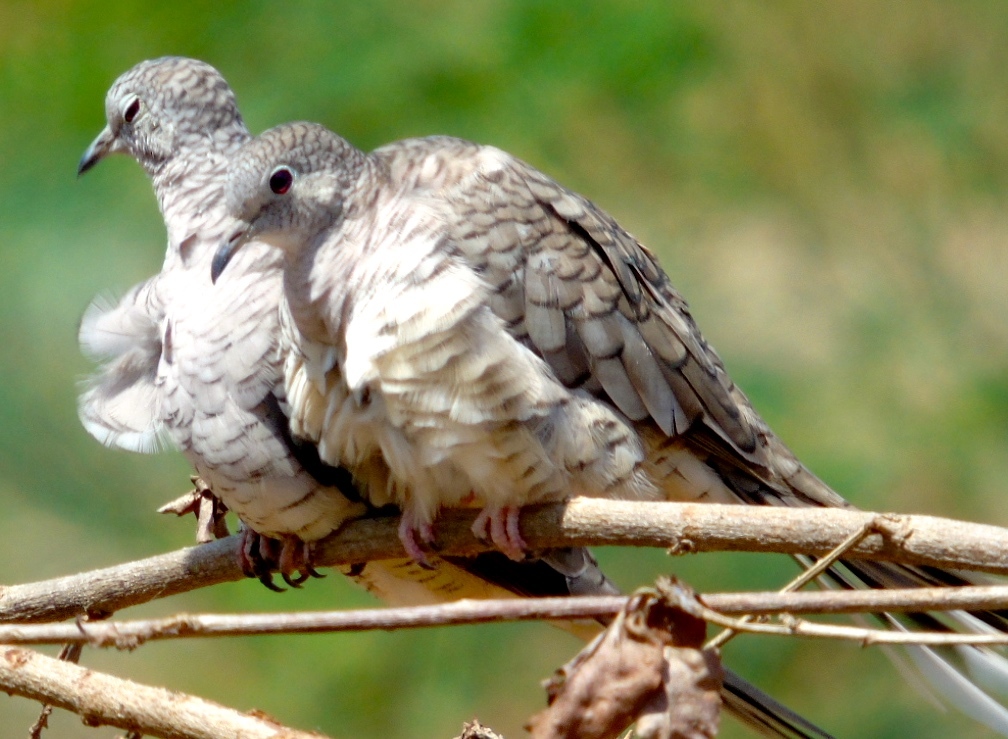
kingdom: Animalia
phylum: Chordata
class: Aves
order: Columbiformes
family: Columbidae
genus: Columbina
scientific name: Columbina inca
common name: Inca dove
